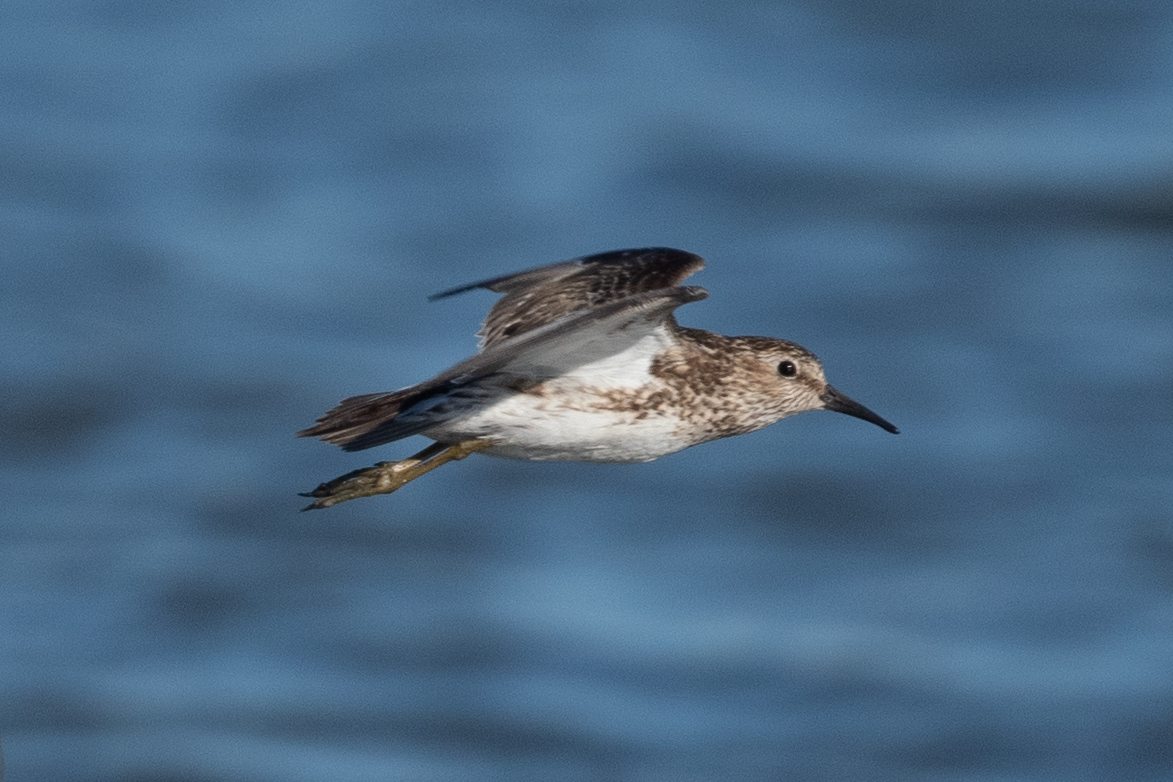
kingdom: Animalia
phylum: Chordata
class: Aves
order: Charadriiformes
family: Scolopacidae
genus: Calidris
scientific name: Calidris minutilla
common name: Least sandpiper
